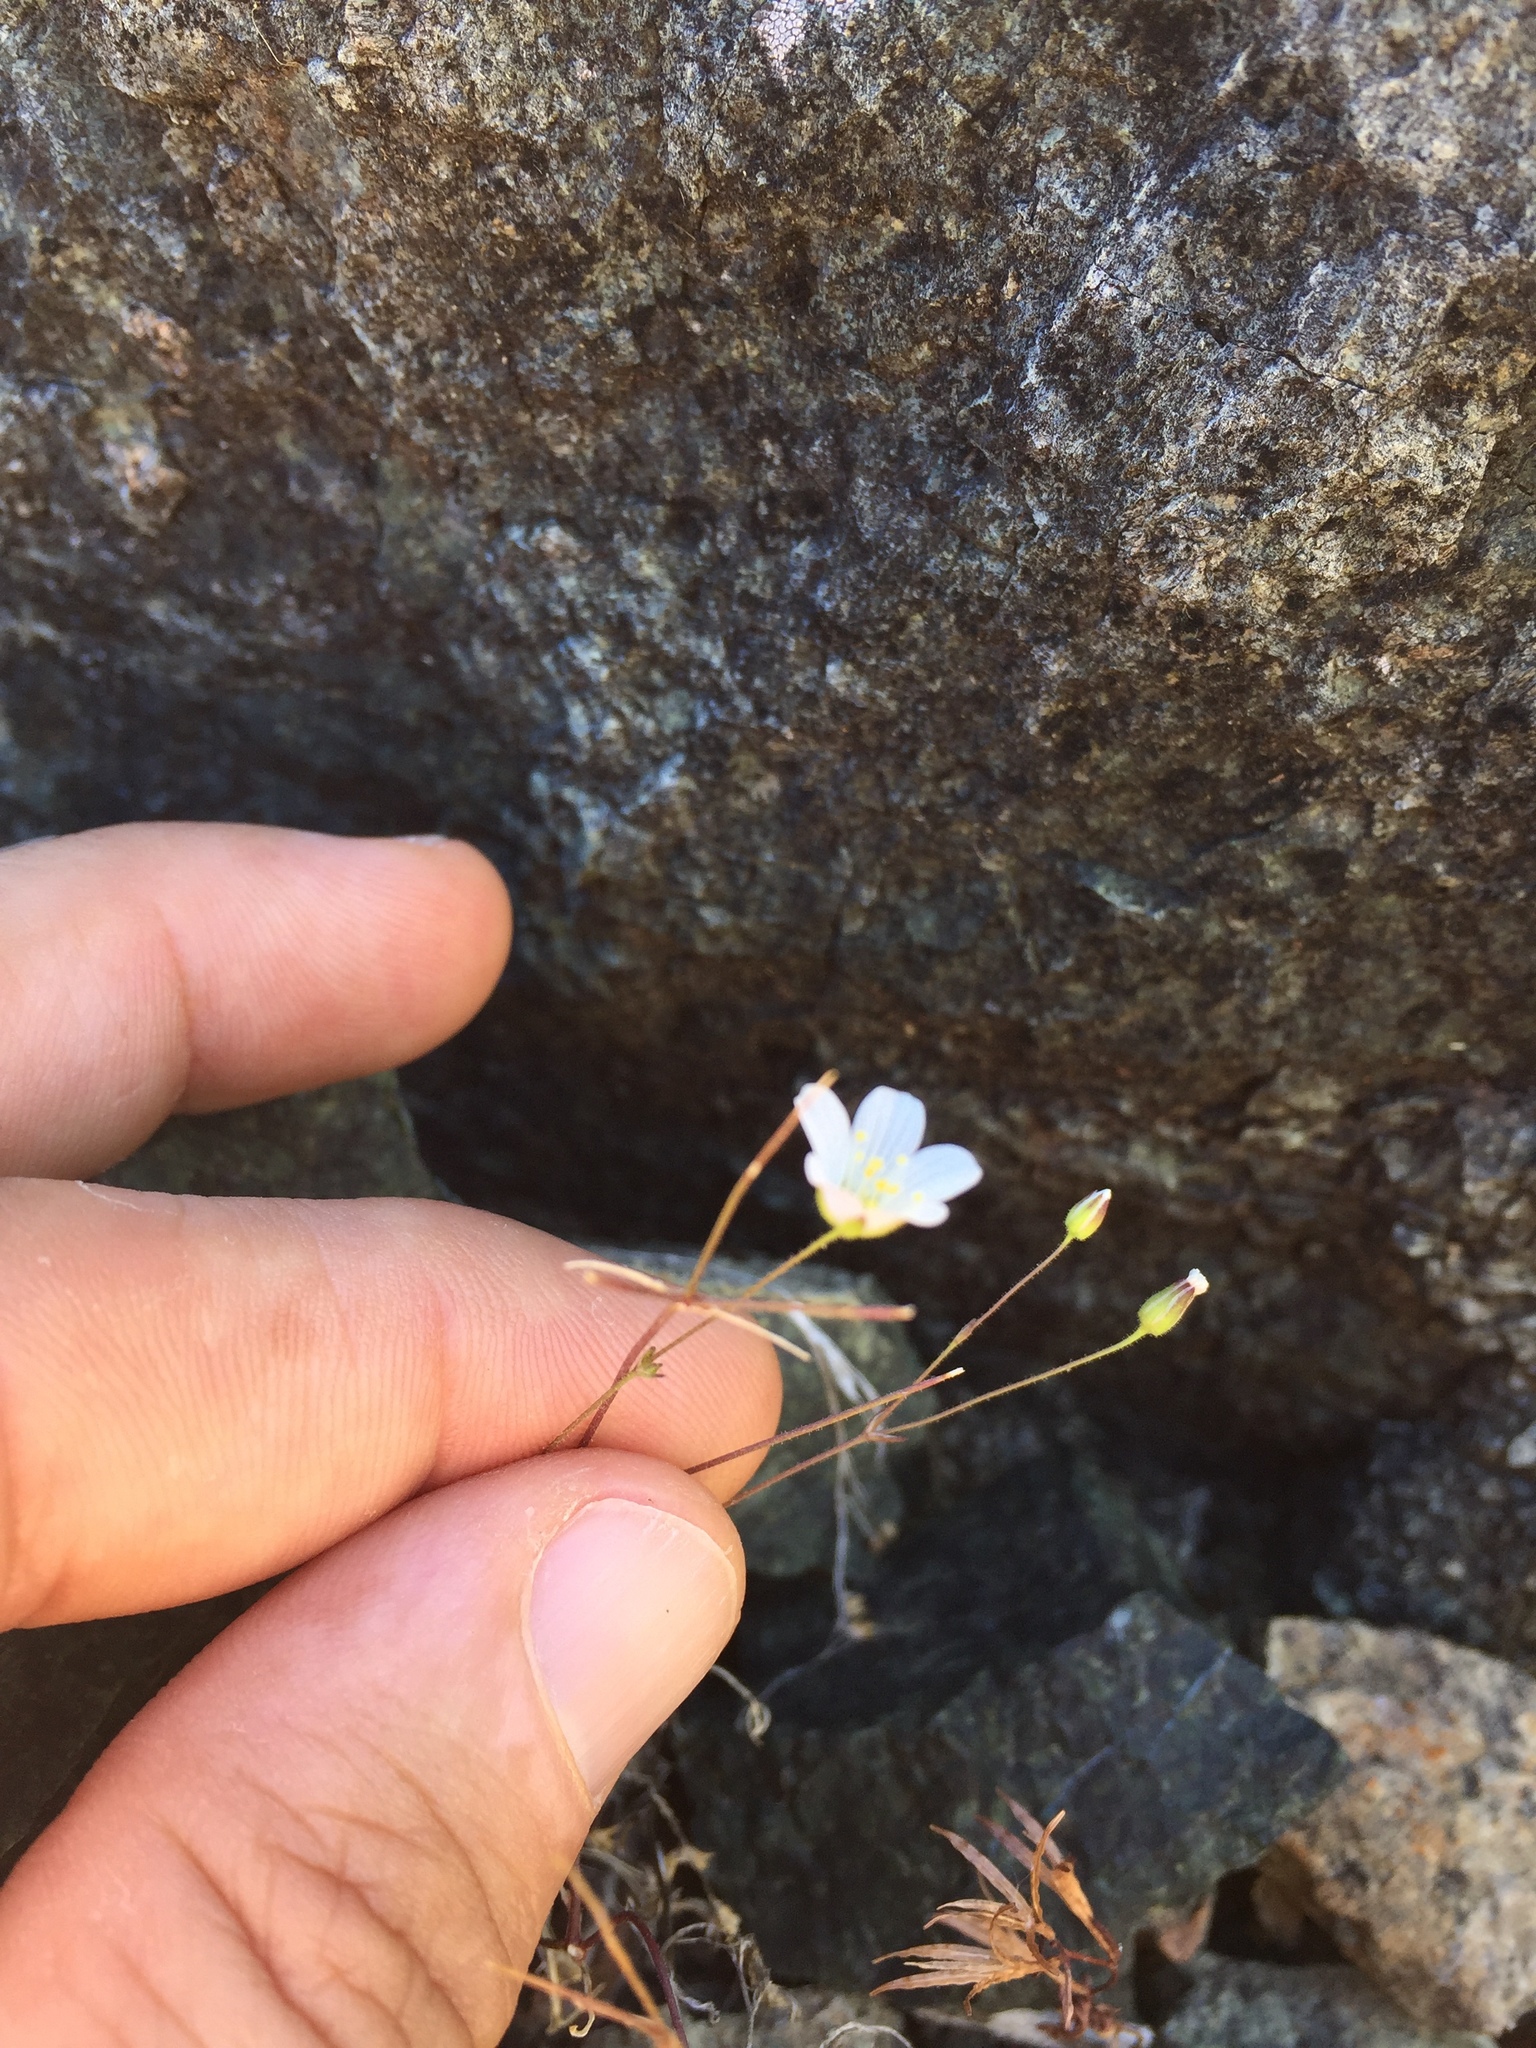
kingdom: Plantae
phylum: Tracheophyta
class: Magnoliopsida
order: Caryophyllales
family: Caryophyllaceae
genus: Sabulina
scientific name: Sabulina douglasii
